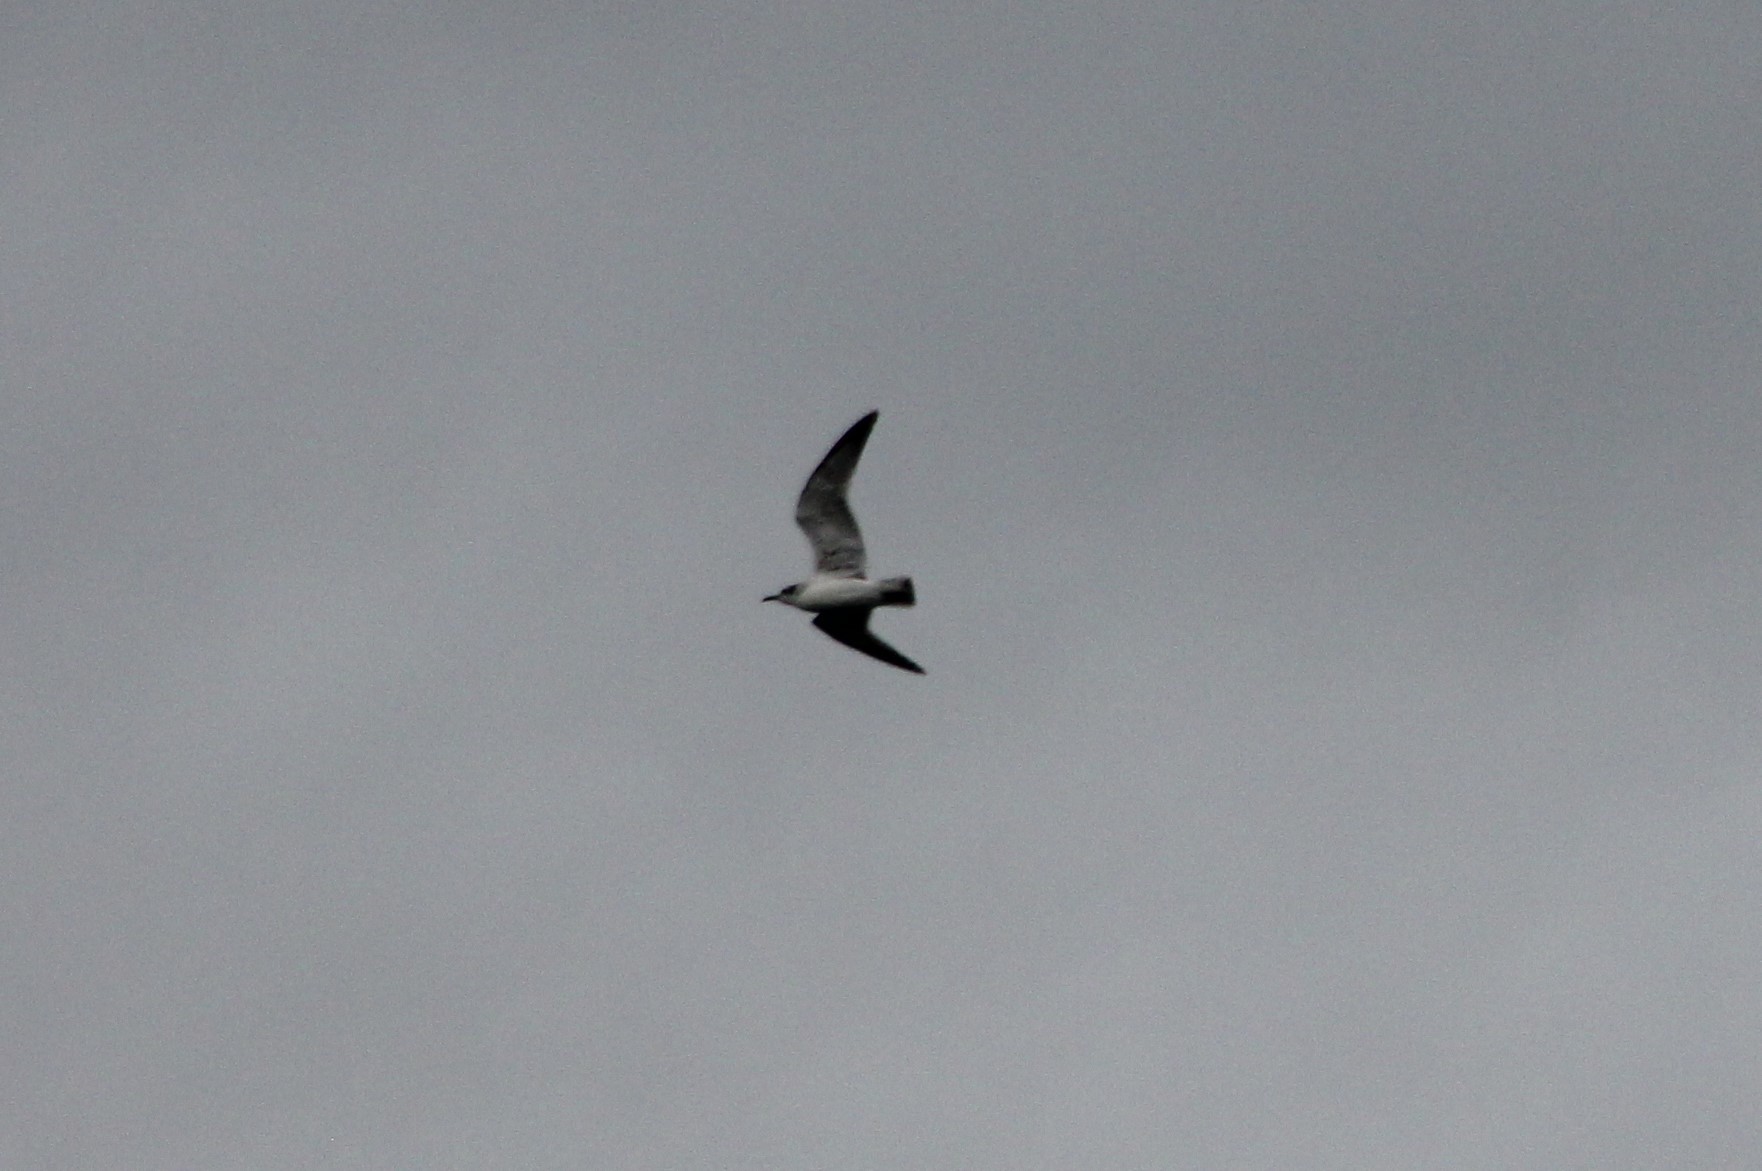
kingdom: Animalia
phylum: Chordata
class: Aves
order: Charadriiformes
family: Laridae
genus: Leucophaeus
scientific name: Leucophaeus pipixcan
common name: Franklin's gull
